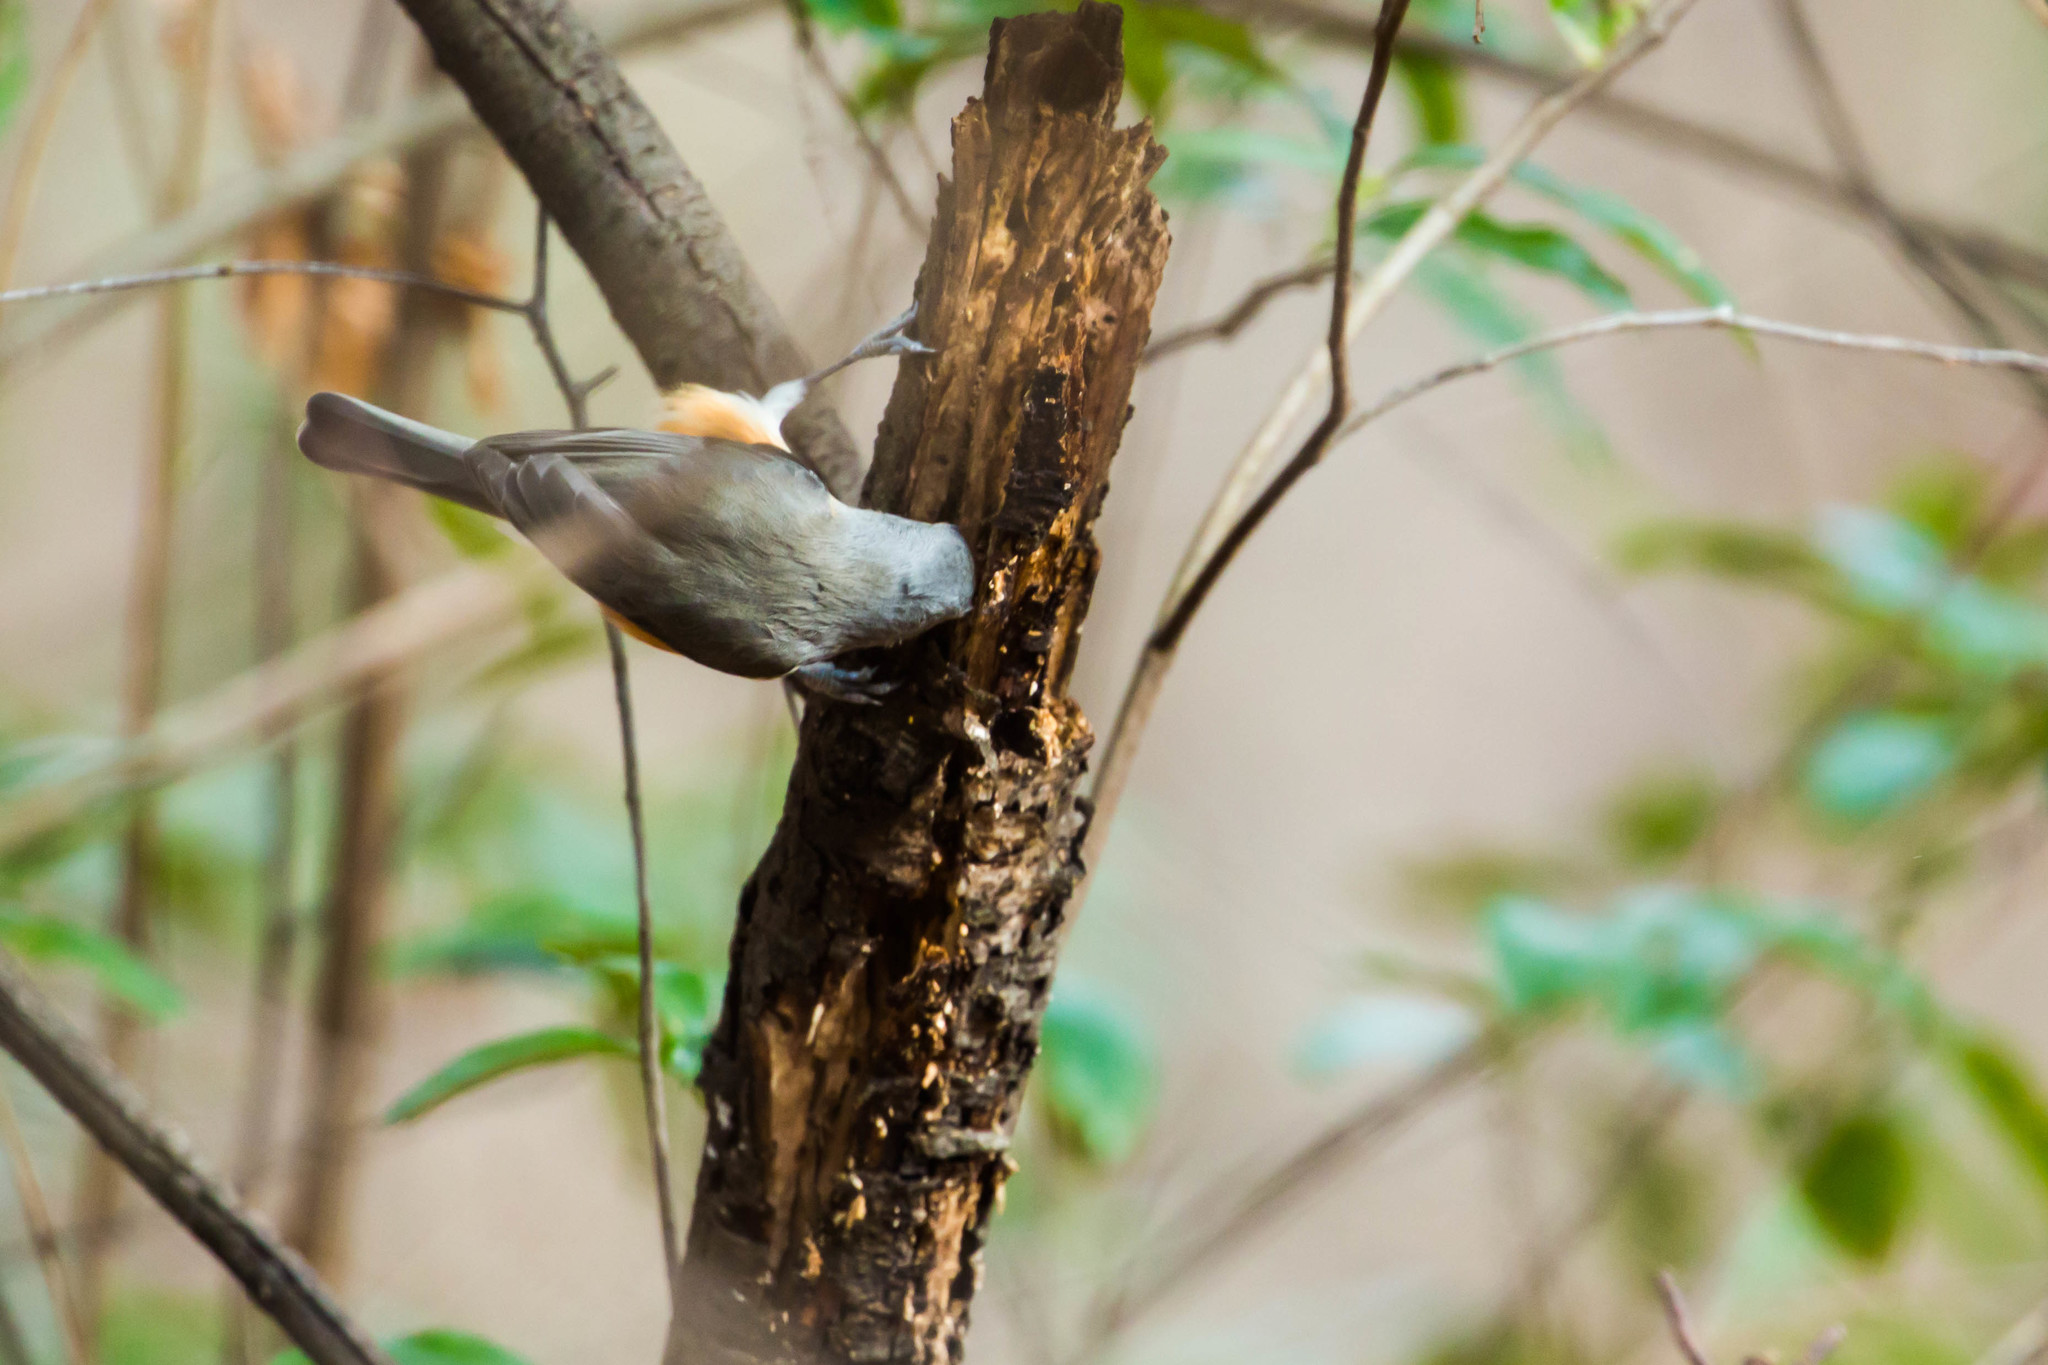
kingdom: Animalia
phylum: Chordata
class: Aves
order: Passeriformes
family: Paridae
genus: Baeolophus
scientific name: Baeolophus bicolor
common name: Tufted titmouse
